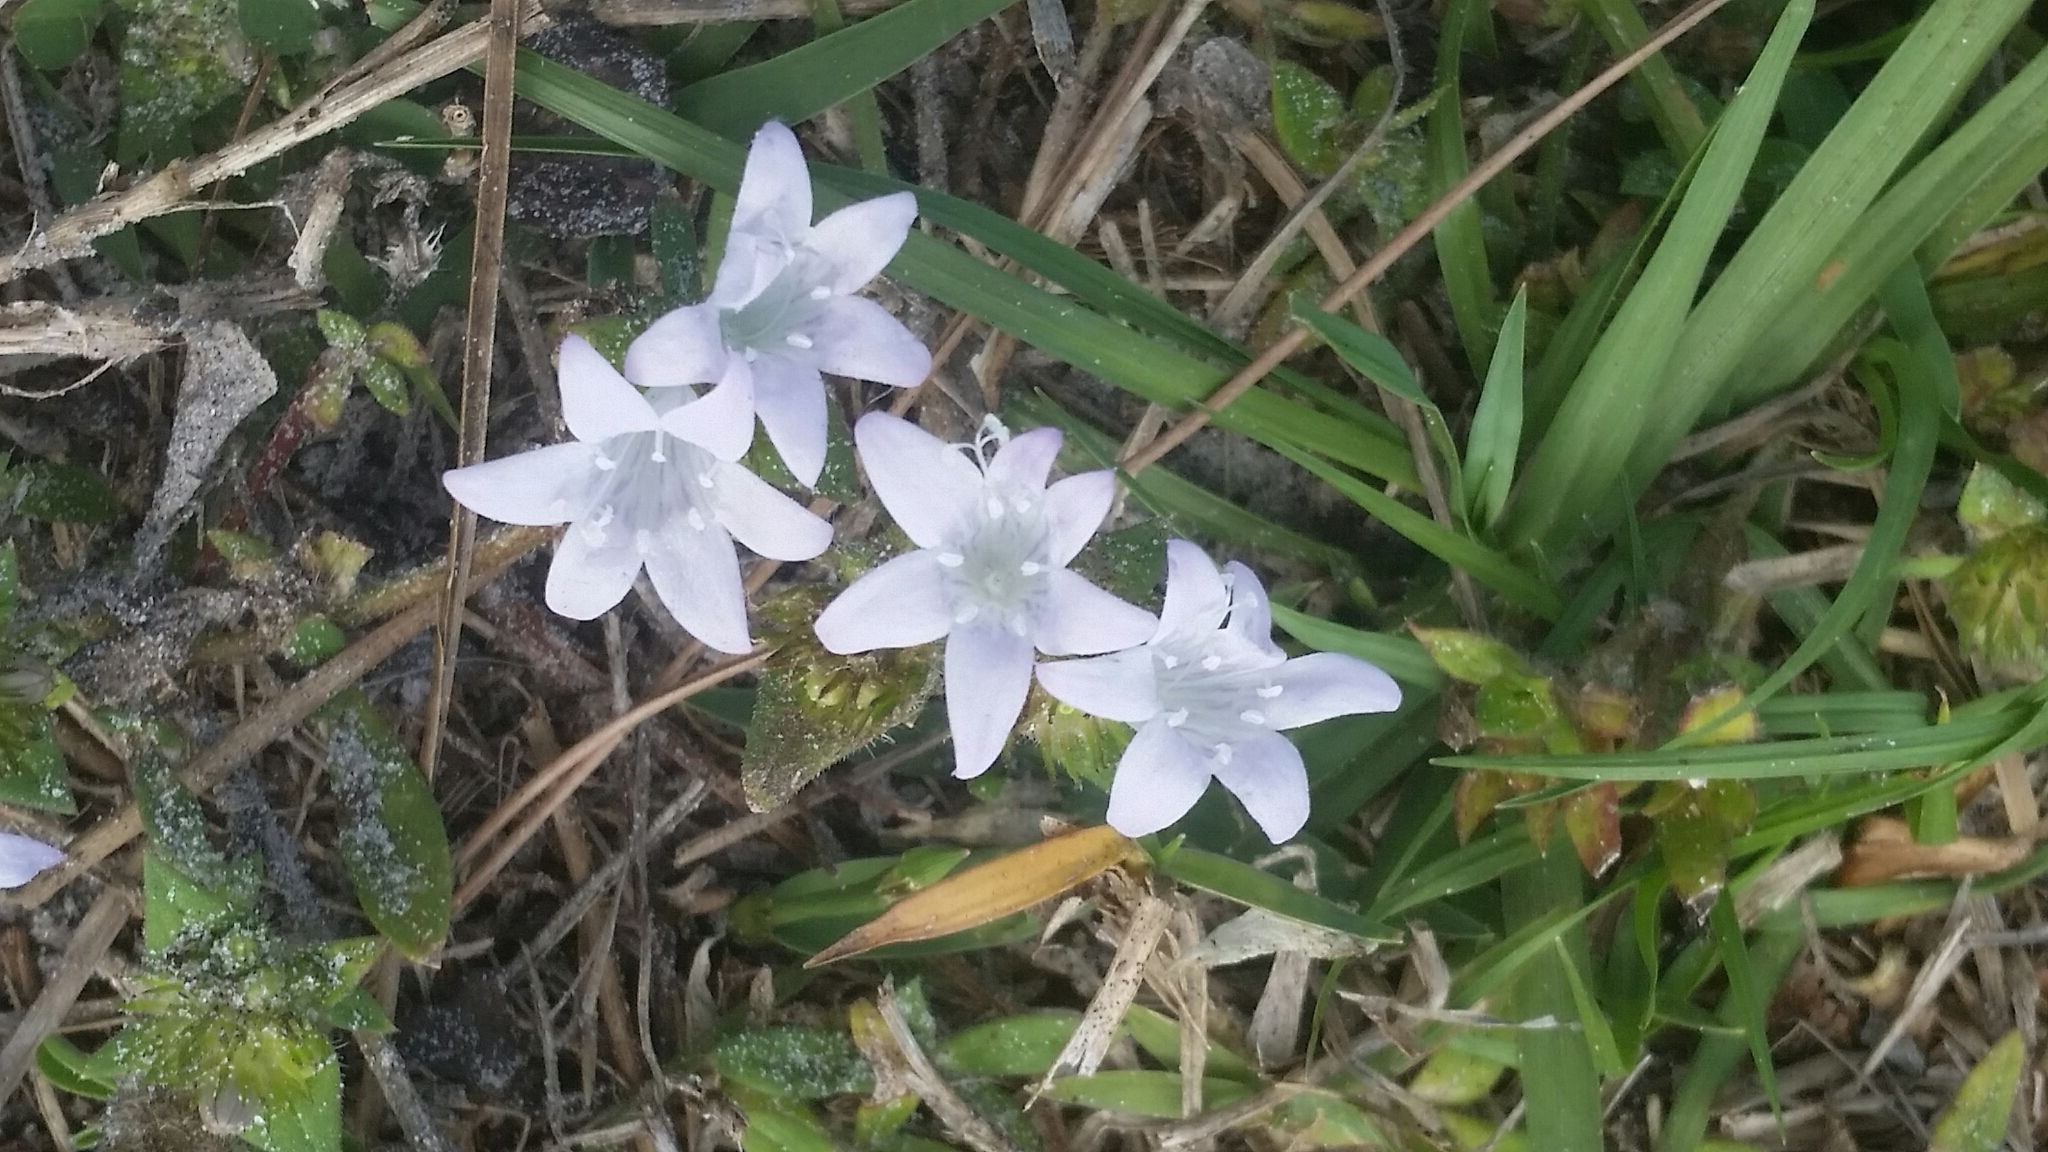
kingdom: Plantae
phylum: Tracheophyta
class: Magnoliopsida
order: Gentianales
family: Rubiaceae
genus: Richardia
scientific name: Richardia grandiflora
